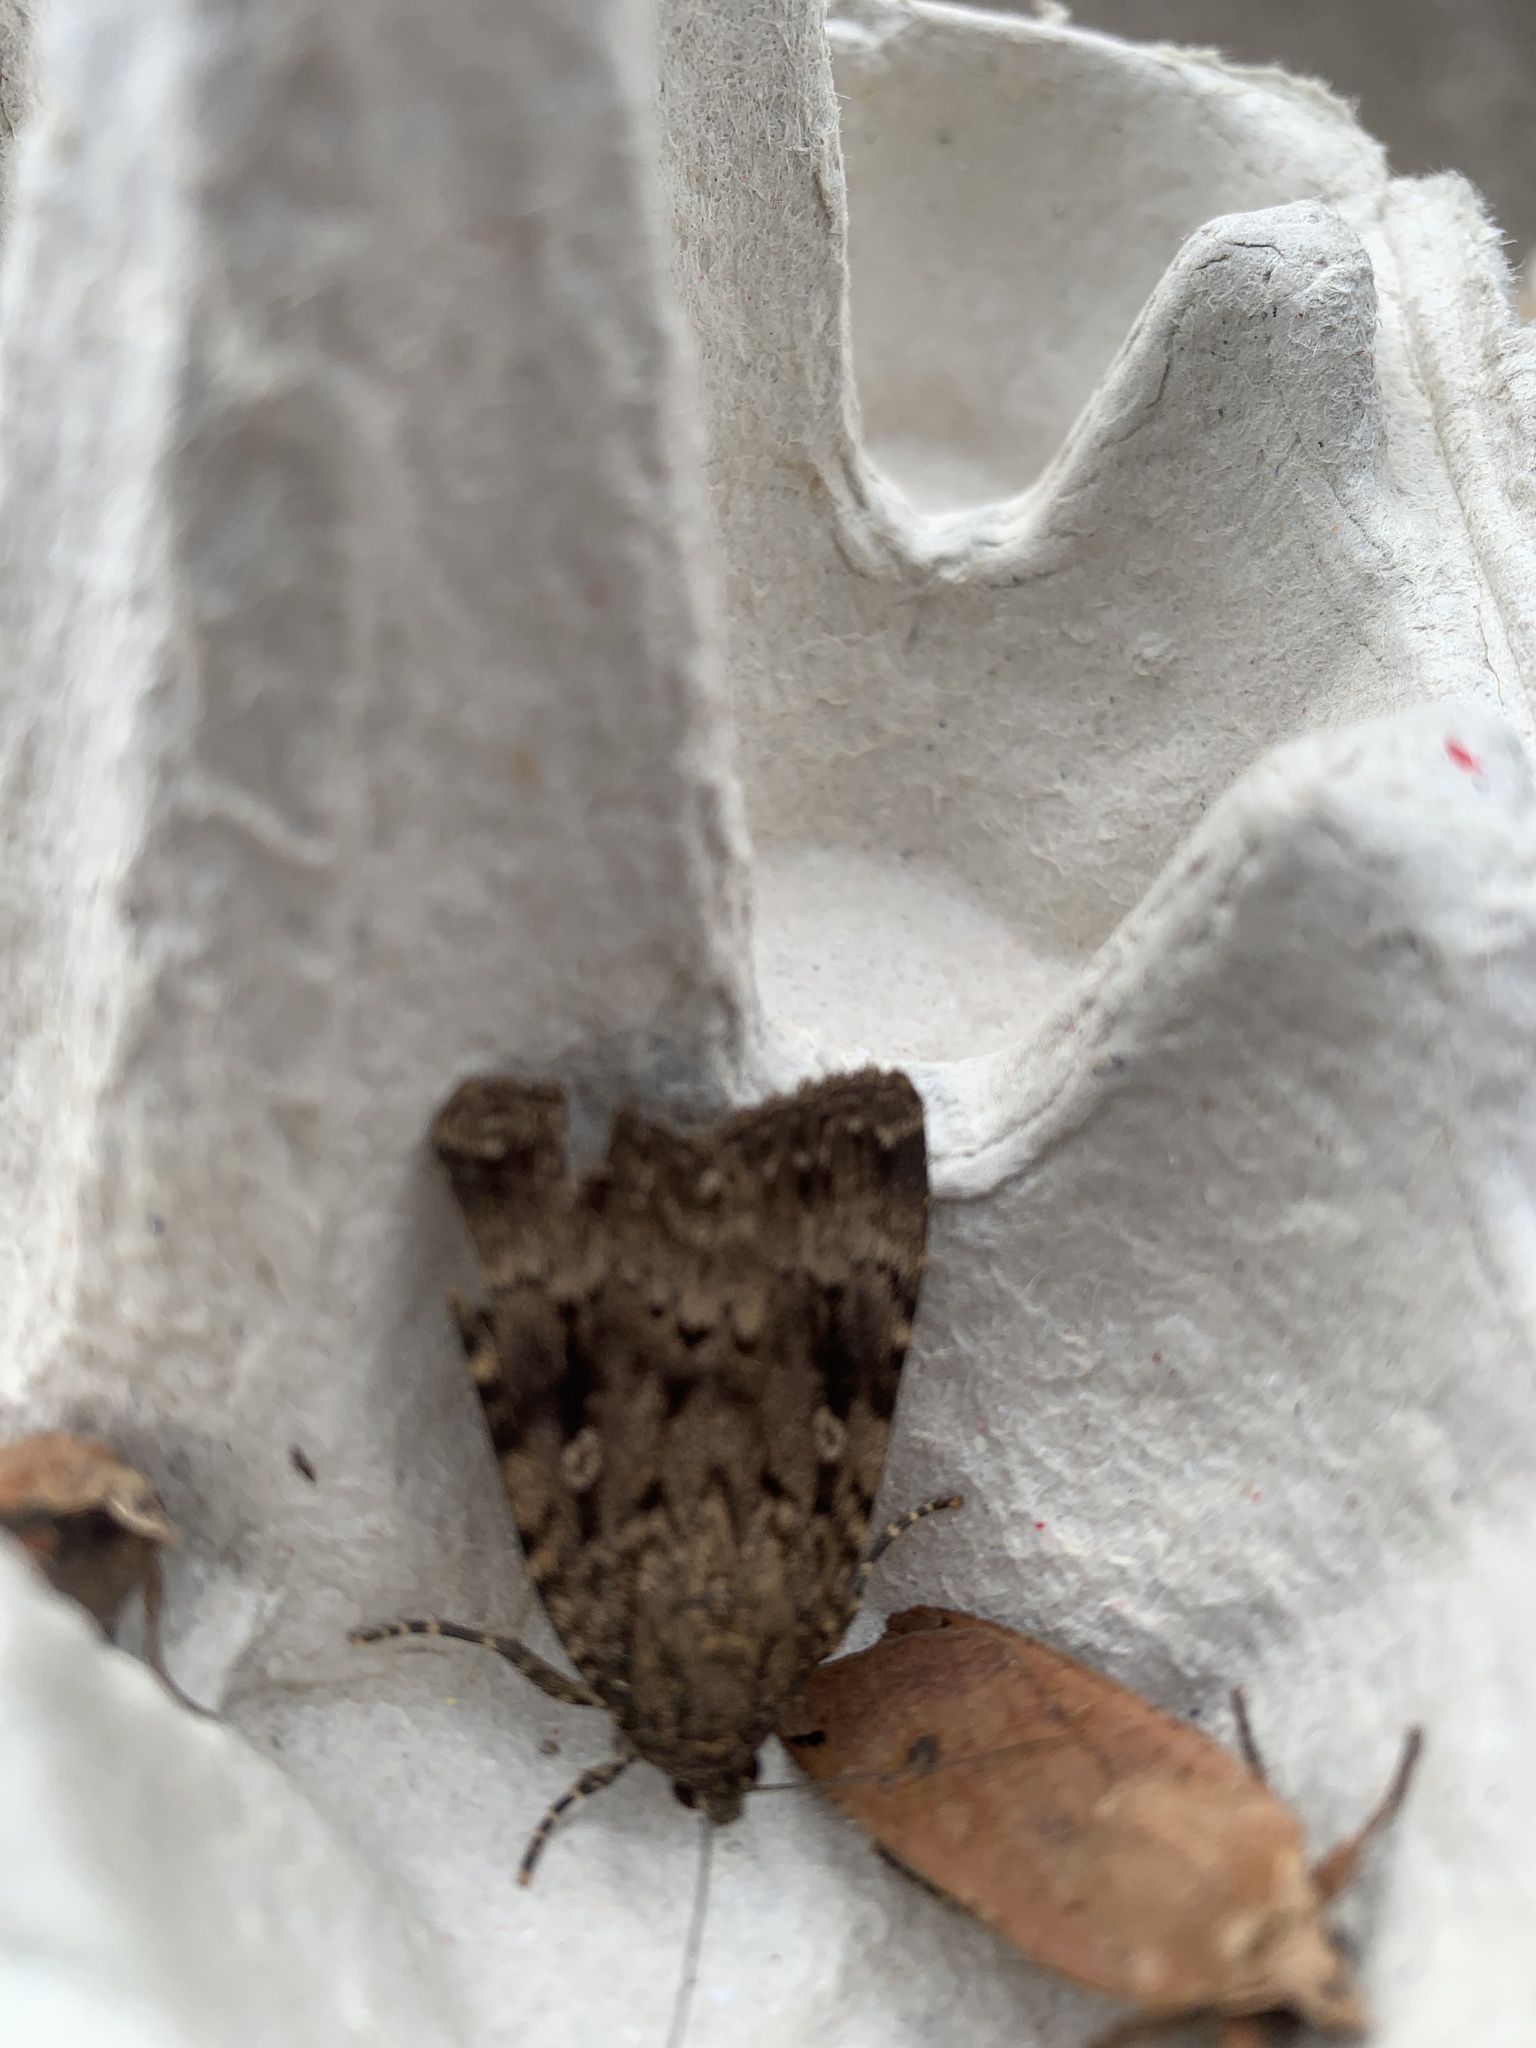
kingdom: Animalia
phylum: Arthropoda
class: Insecta
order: Lepidoptera
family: Noctuidae
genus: Amphipyra
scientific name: Amphipyra pyramidea
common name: Copper underwing
